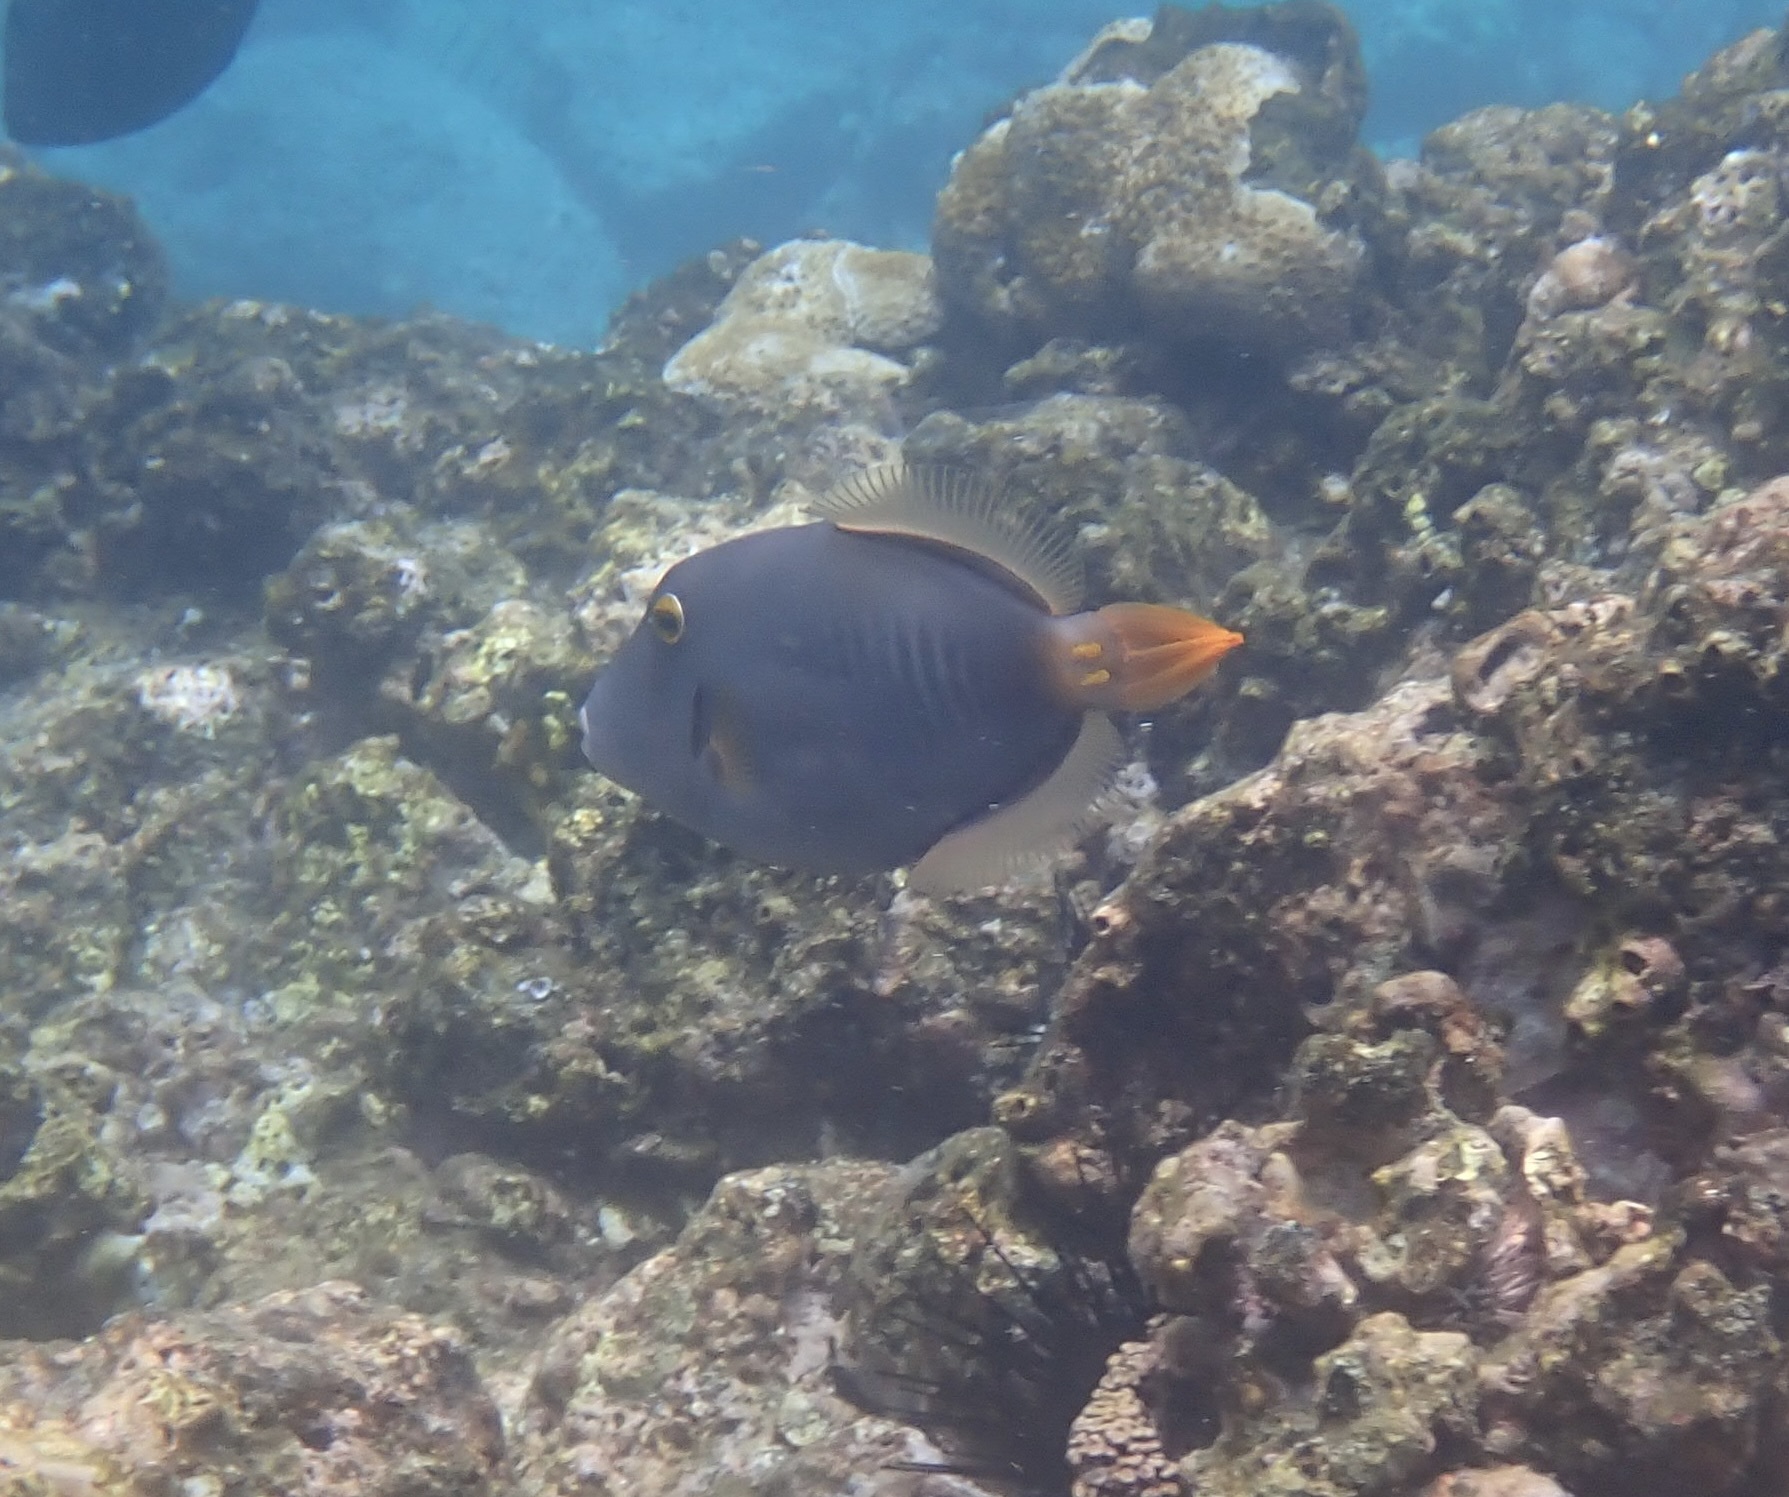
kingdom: Animalia
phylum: Chordata
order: Tetraodontiformes
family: Monacanthidae
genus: Cantherhines
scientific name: Cantherhines dumerilii
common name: Barred filefish
